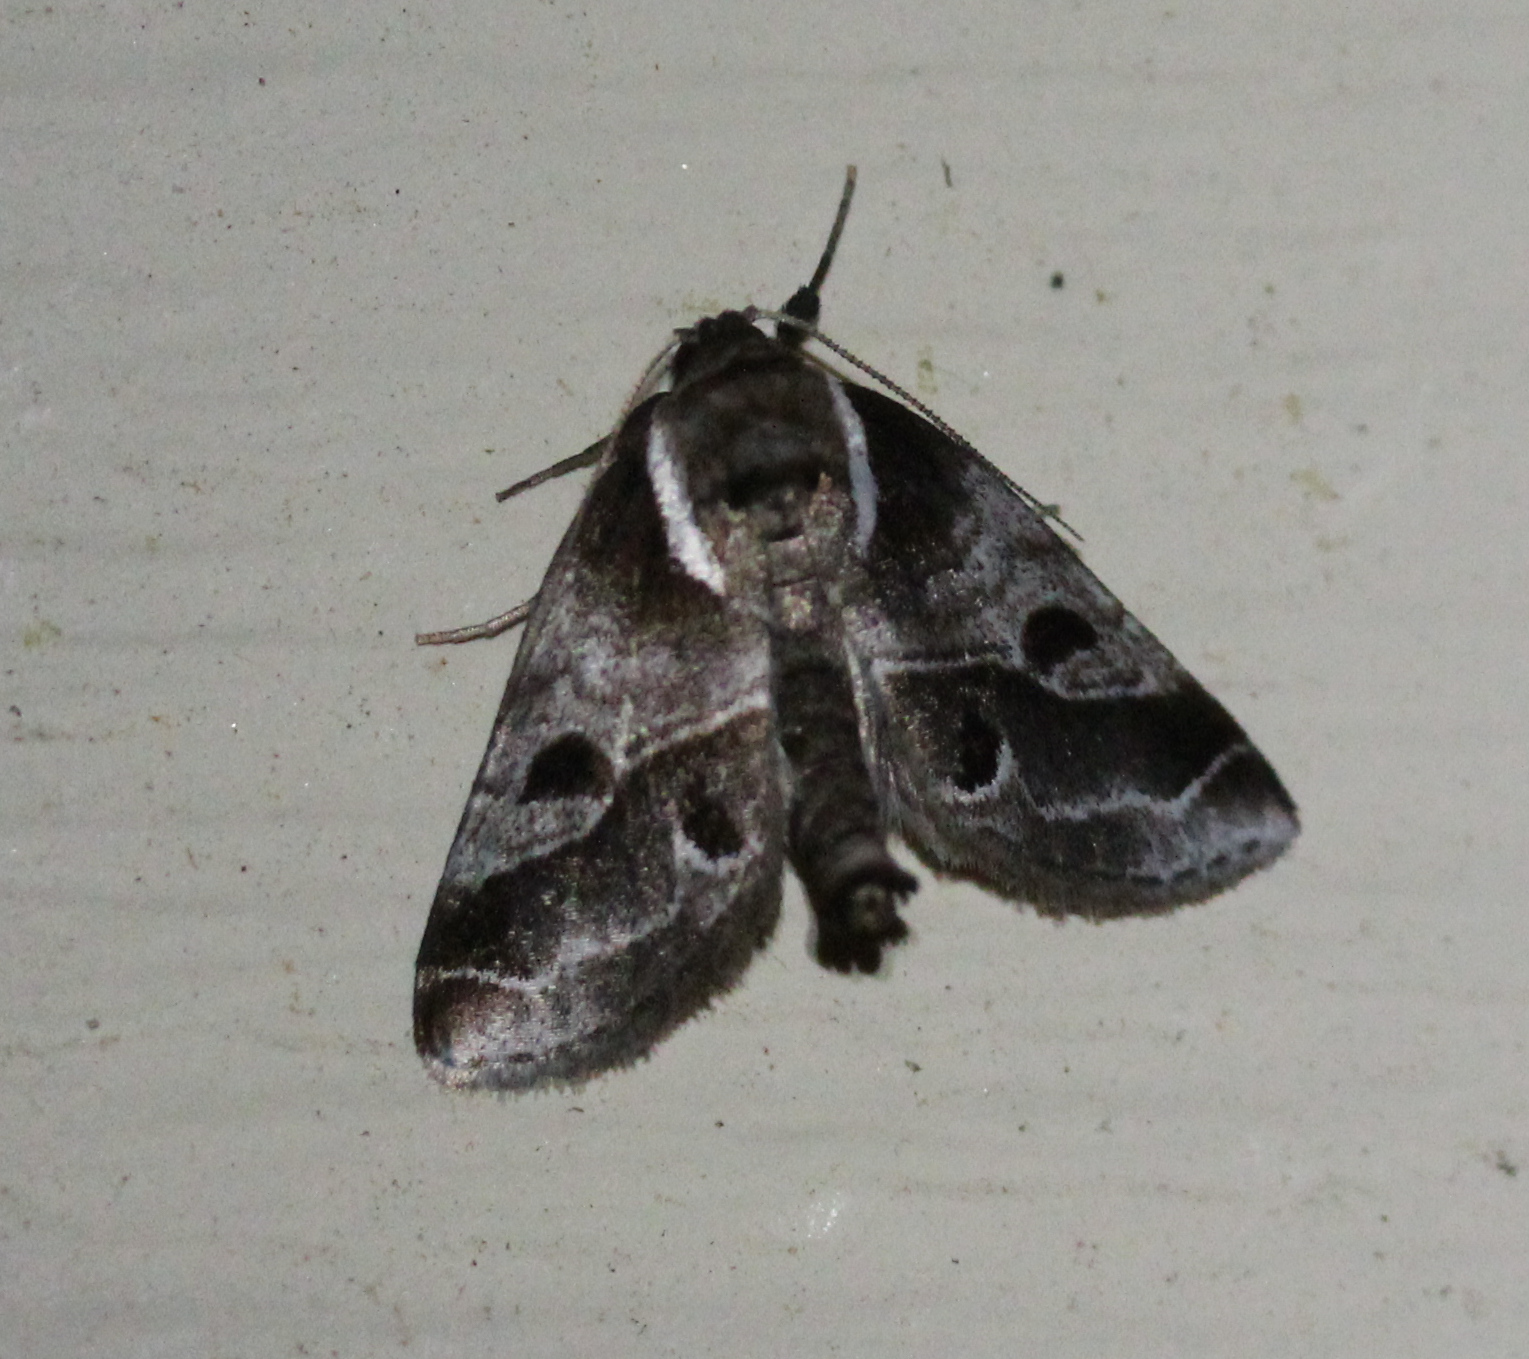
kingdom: Animalia
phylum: Arthropoda
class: Insecta
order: Lepidoptera
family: Nolidae
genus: Baileya
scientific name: Baileya doubledayi
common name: Doubleday's baileya moth
